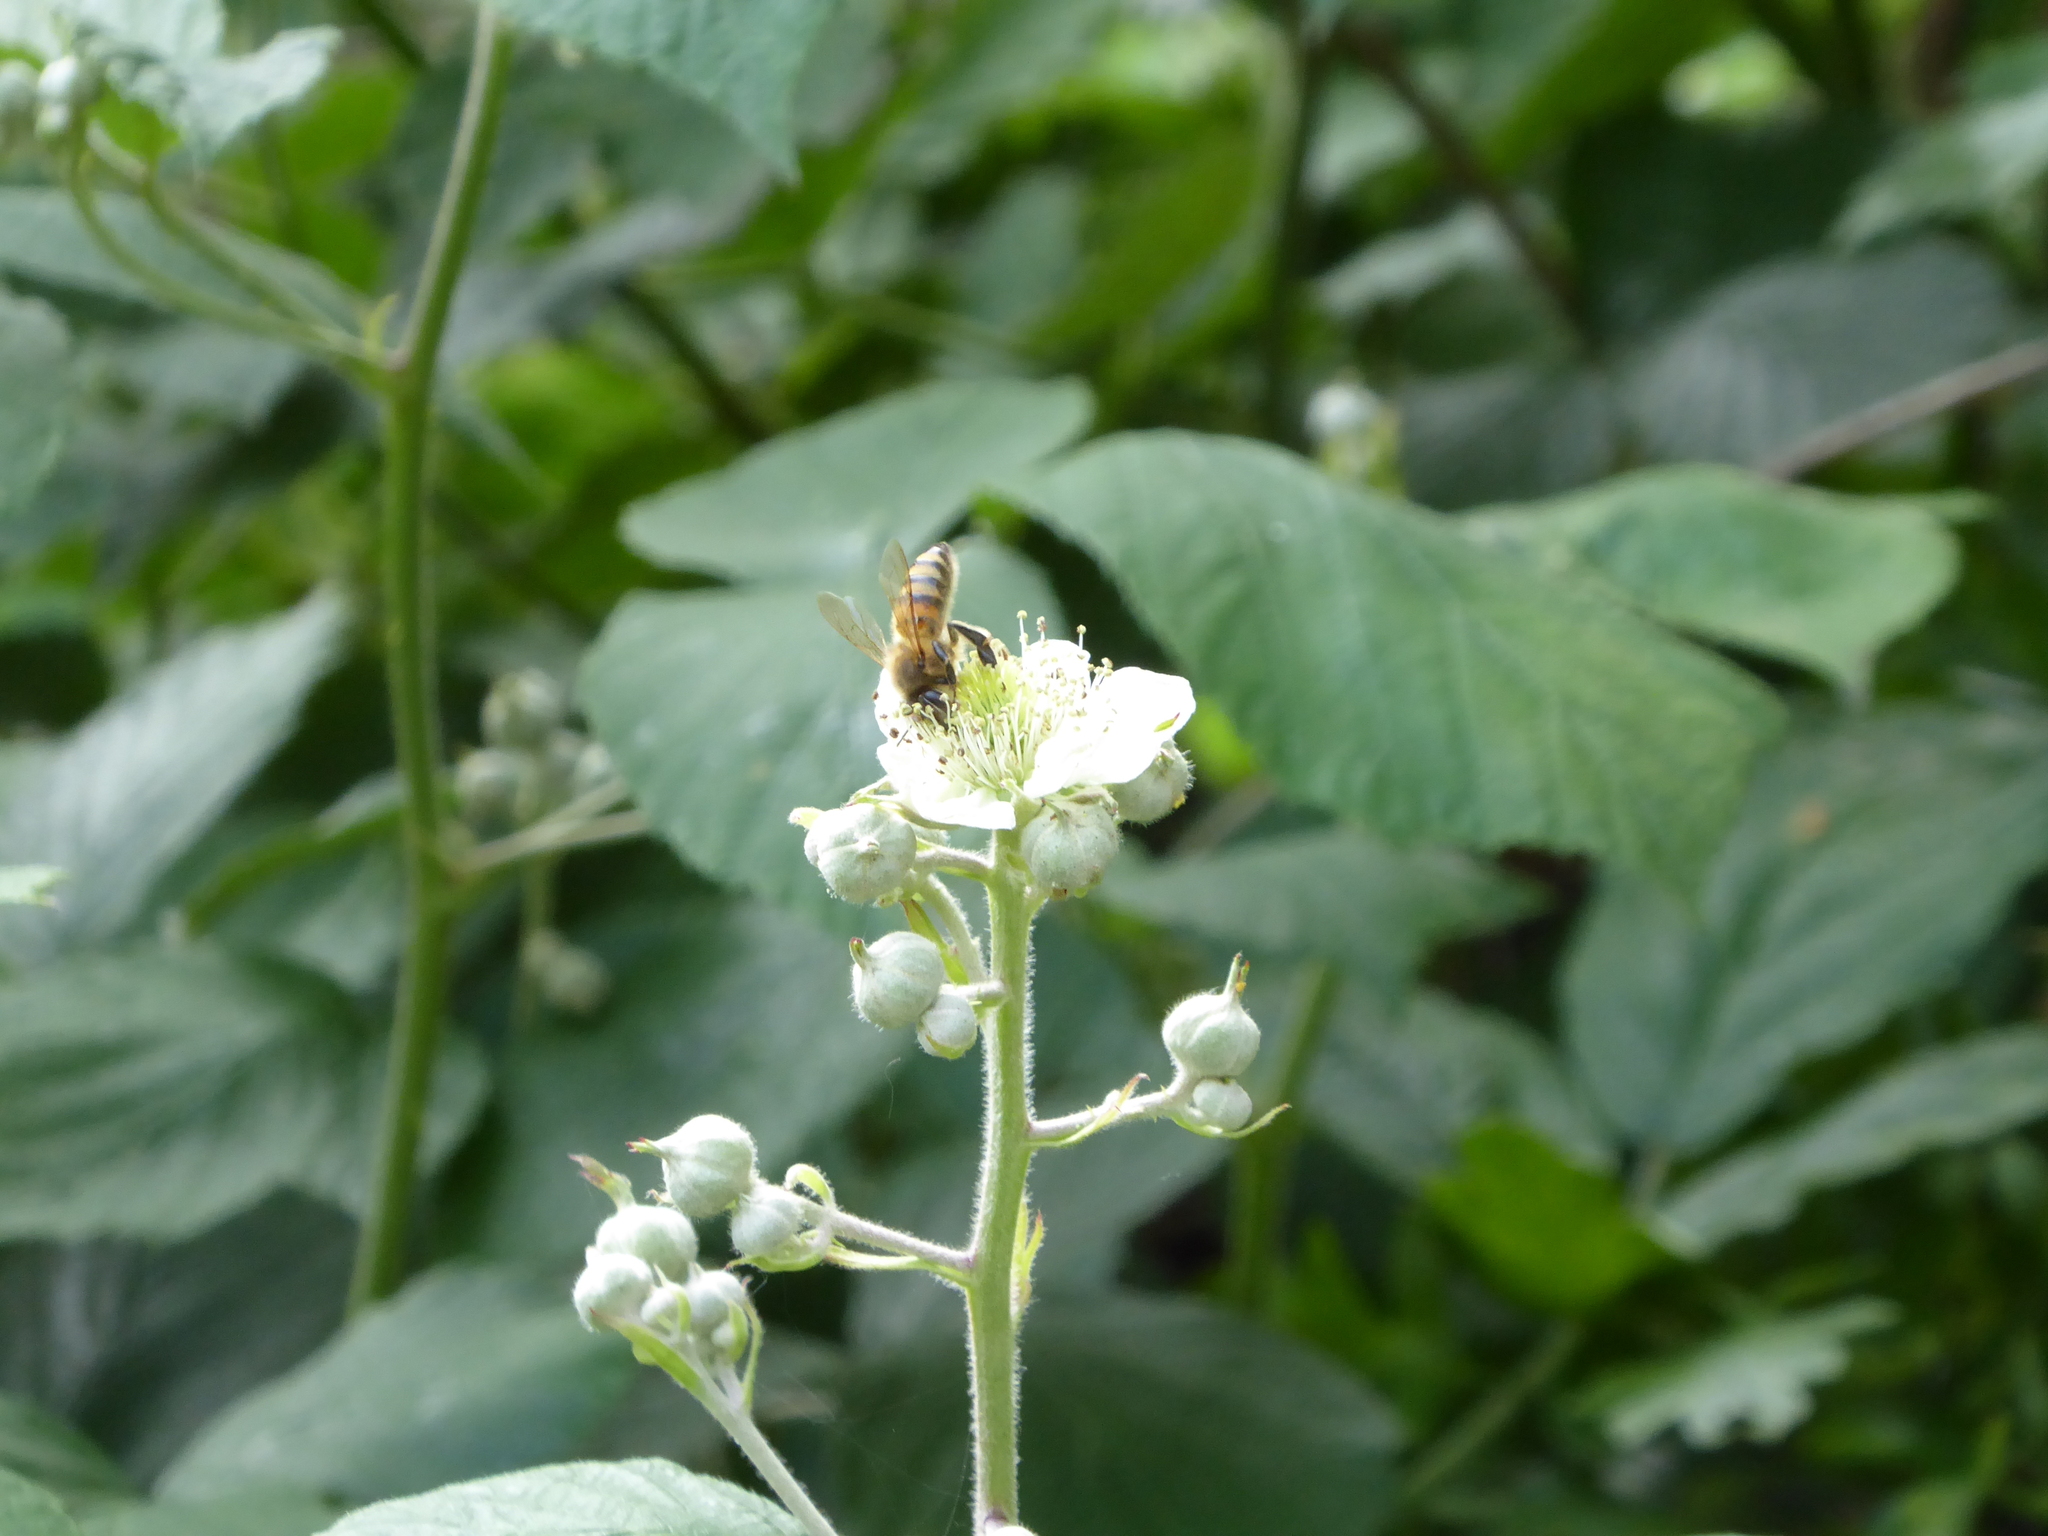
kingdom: Animalia
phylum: Arthropoda
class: Insecta
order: Hymenoptera
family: Apidae
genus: Apis
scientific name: Apis mellifera
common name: Honey bee
